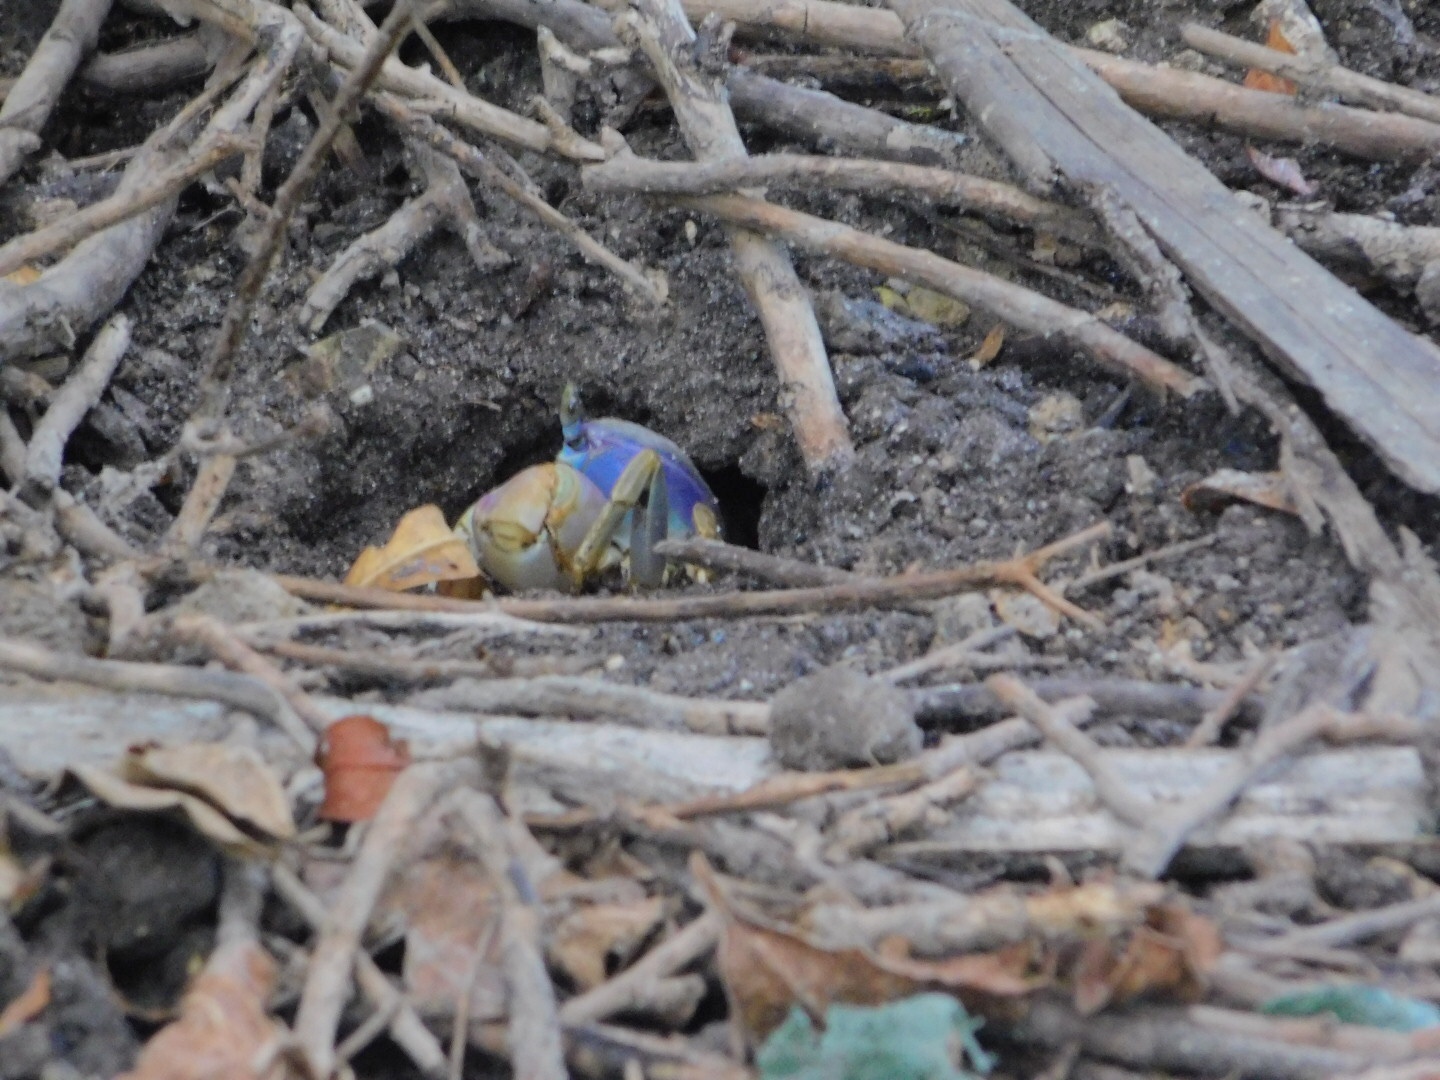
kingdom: Animalia
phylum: Arthropoda
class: Malacostraca
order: Decapoda
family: Gecarcinidae
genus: Cardisoma
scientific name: Cardisoma guanhumi
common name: Great land crab
